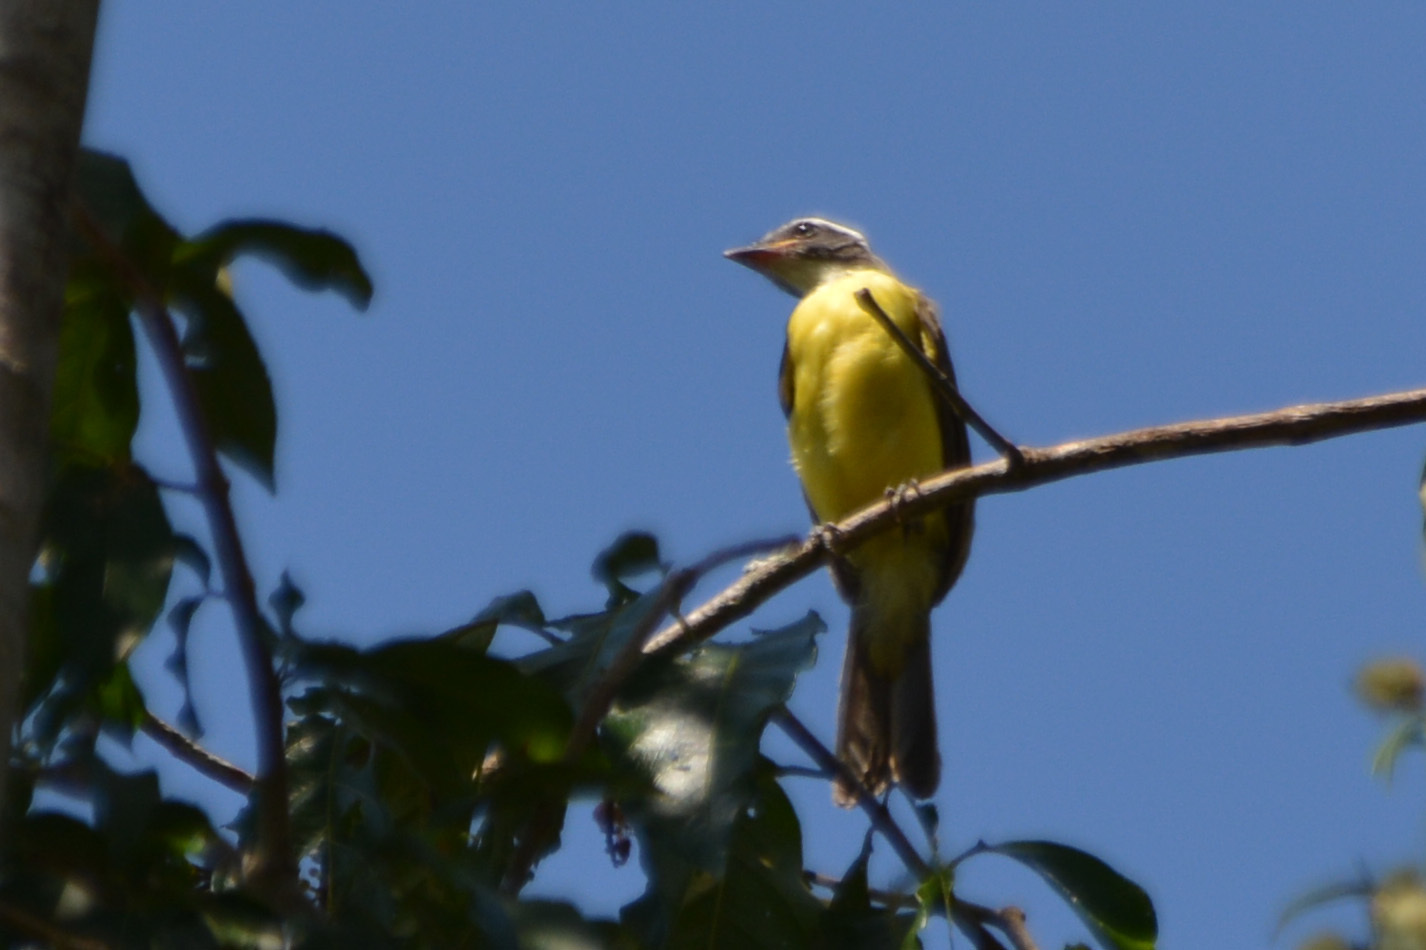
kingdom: Animalia
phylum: Chordata
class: Aves
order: Passeriformes
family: Tyrannidae
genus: Myiozetetes
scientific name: Myiozetetes similis
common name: Social flycatcher
